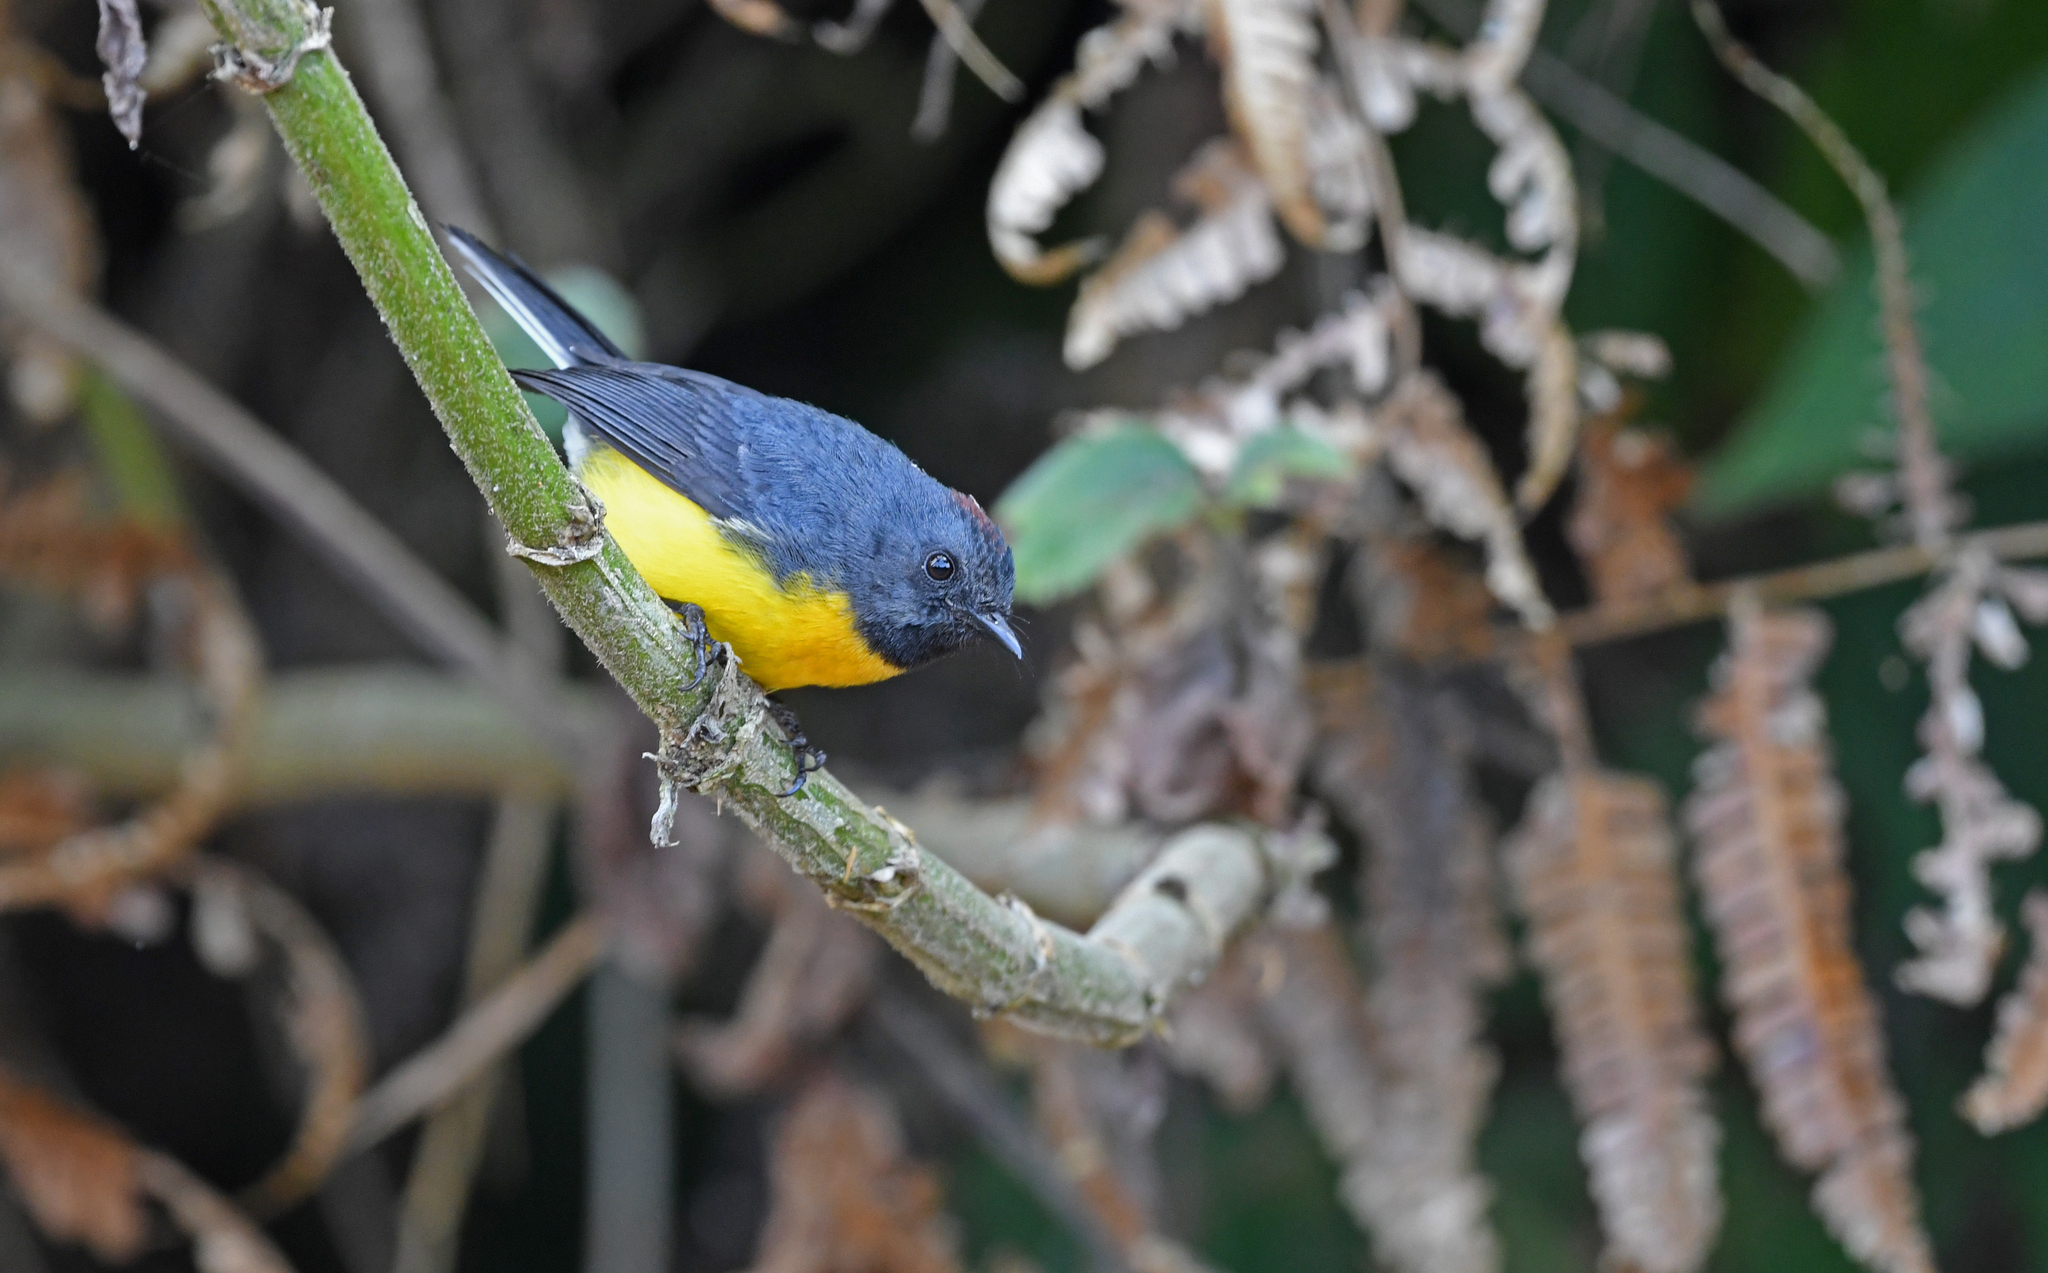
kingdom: Animalia
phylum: Chordata
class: Aves
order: Passeriformes
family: Parulidae
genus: Myioborus
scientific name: Myioborus miniatus
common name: Slate-throated redstart
